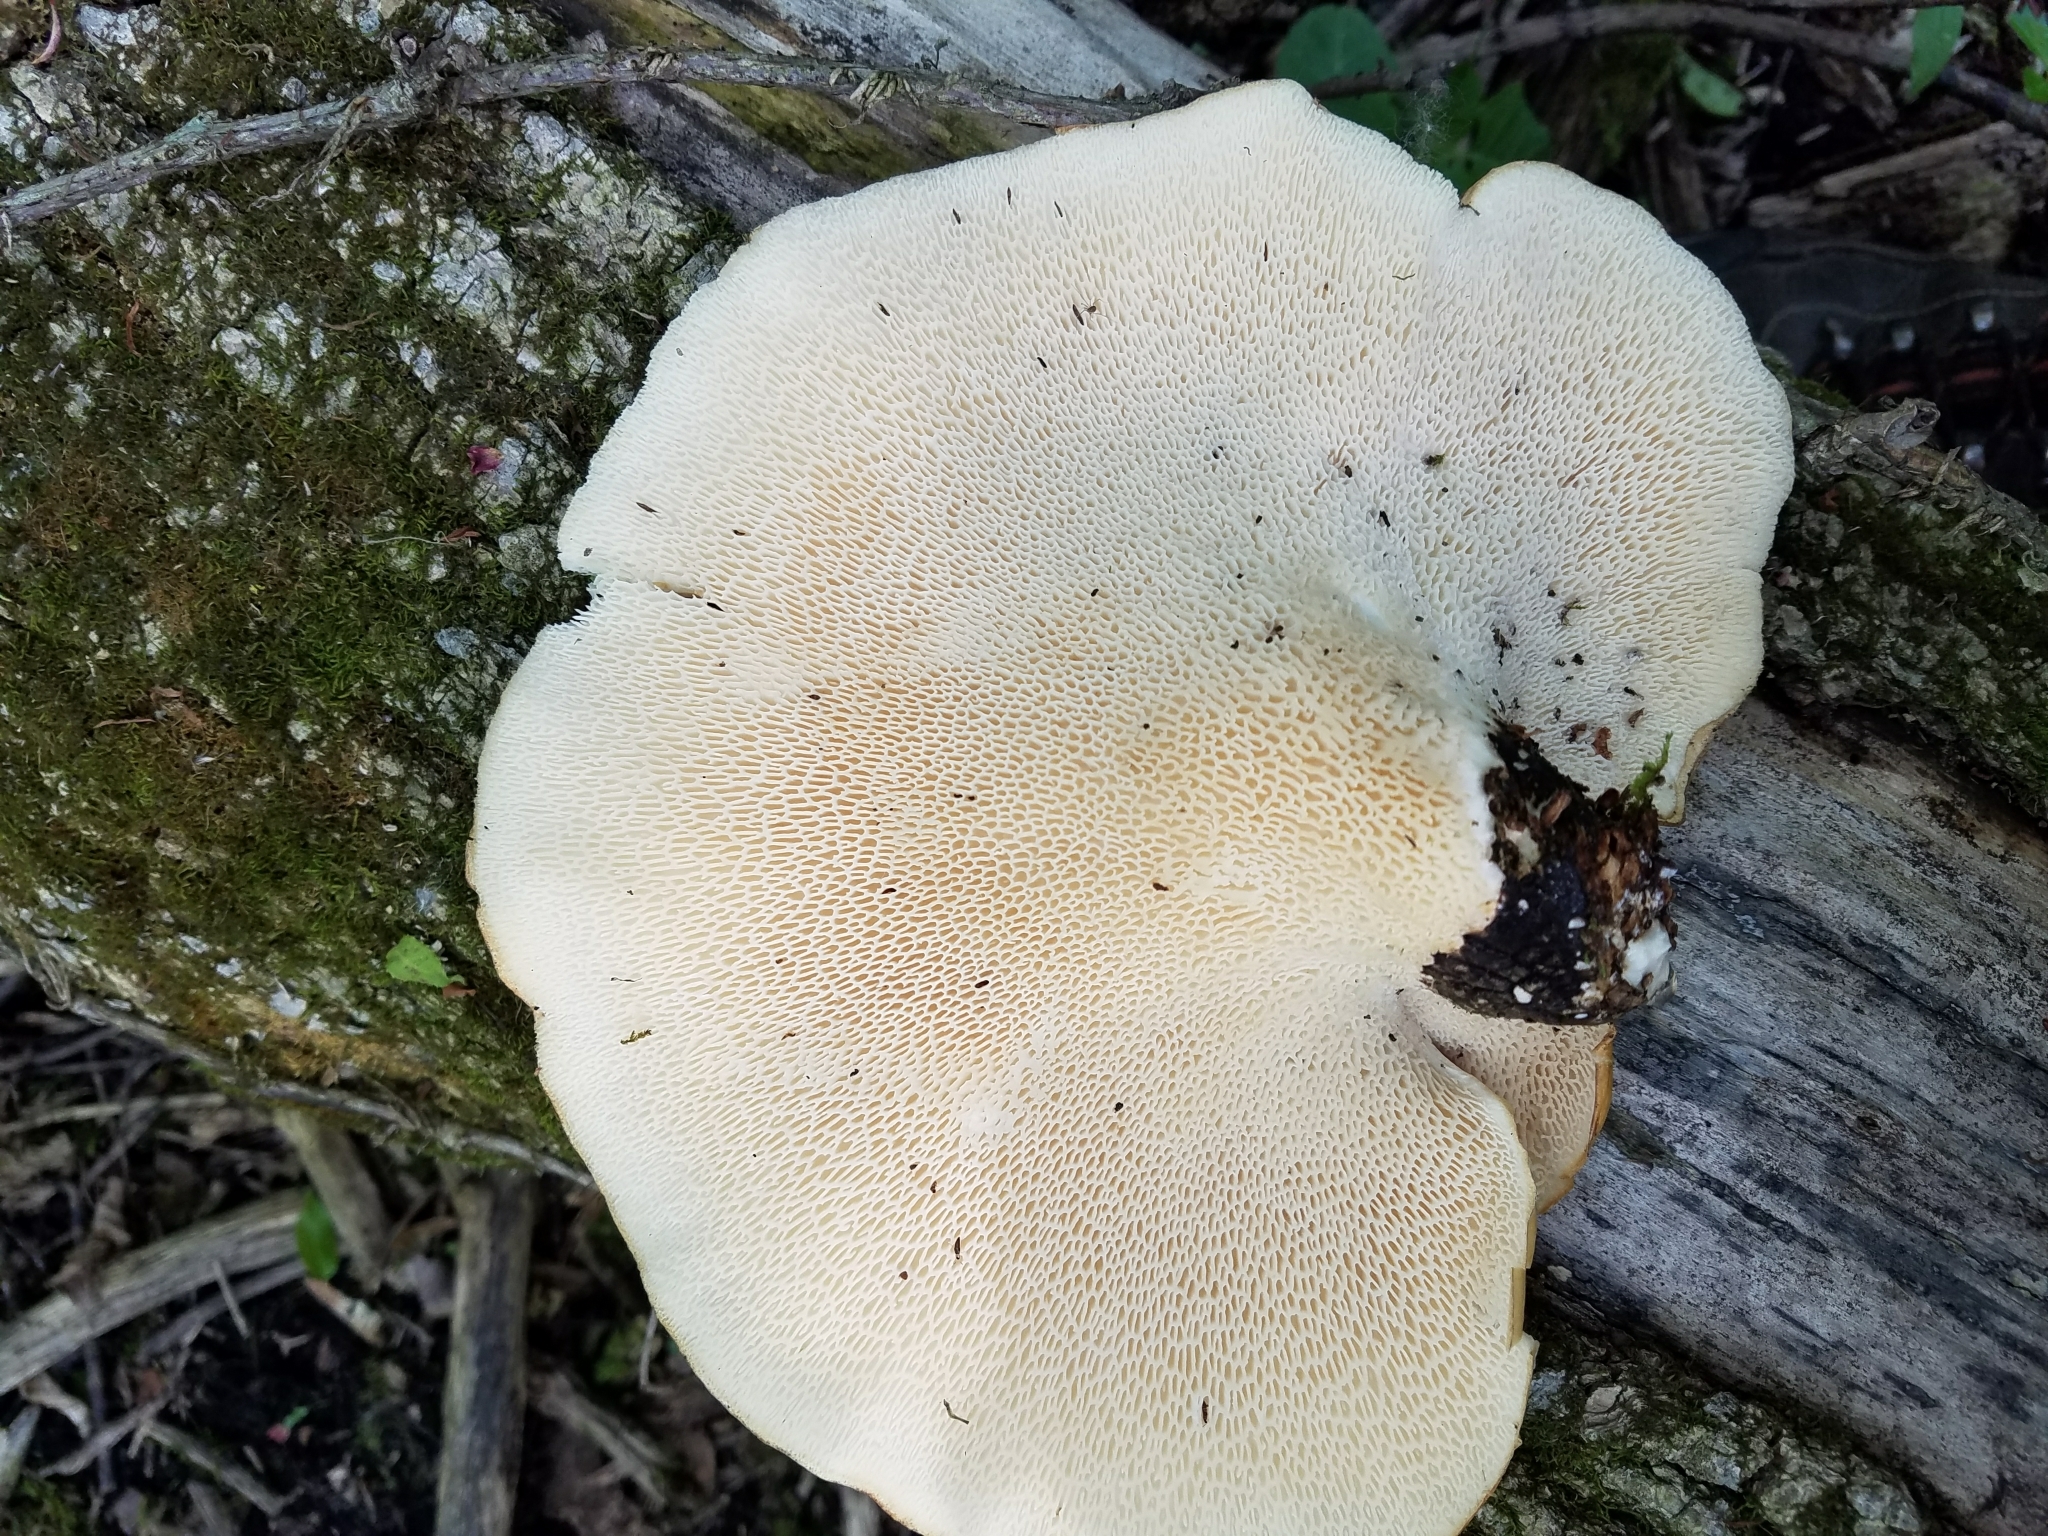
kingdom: Fungi
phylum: Basidiomycota
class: Agaricomycetes
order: Polyporales
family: Polyporaceae
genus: Cerioporus
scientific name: Cerioporus squamosus
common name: Dryad's saddle
